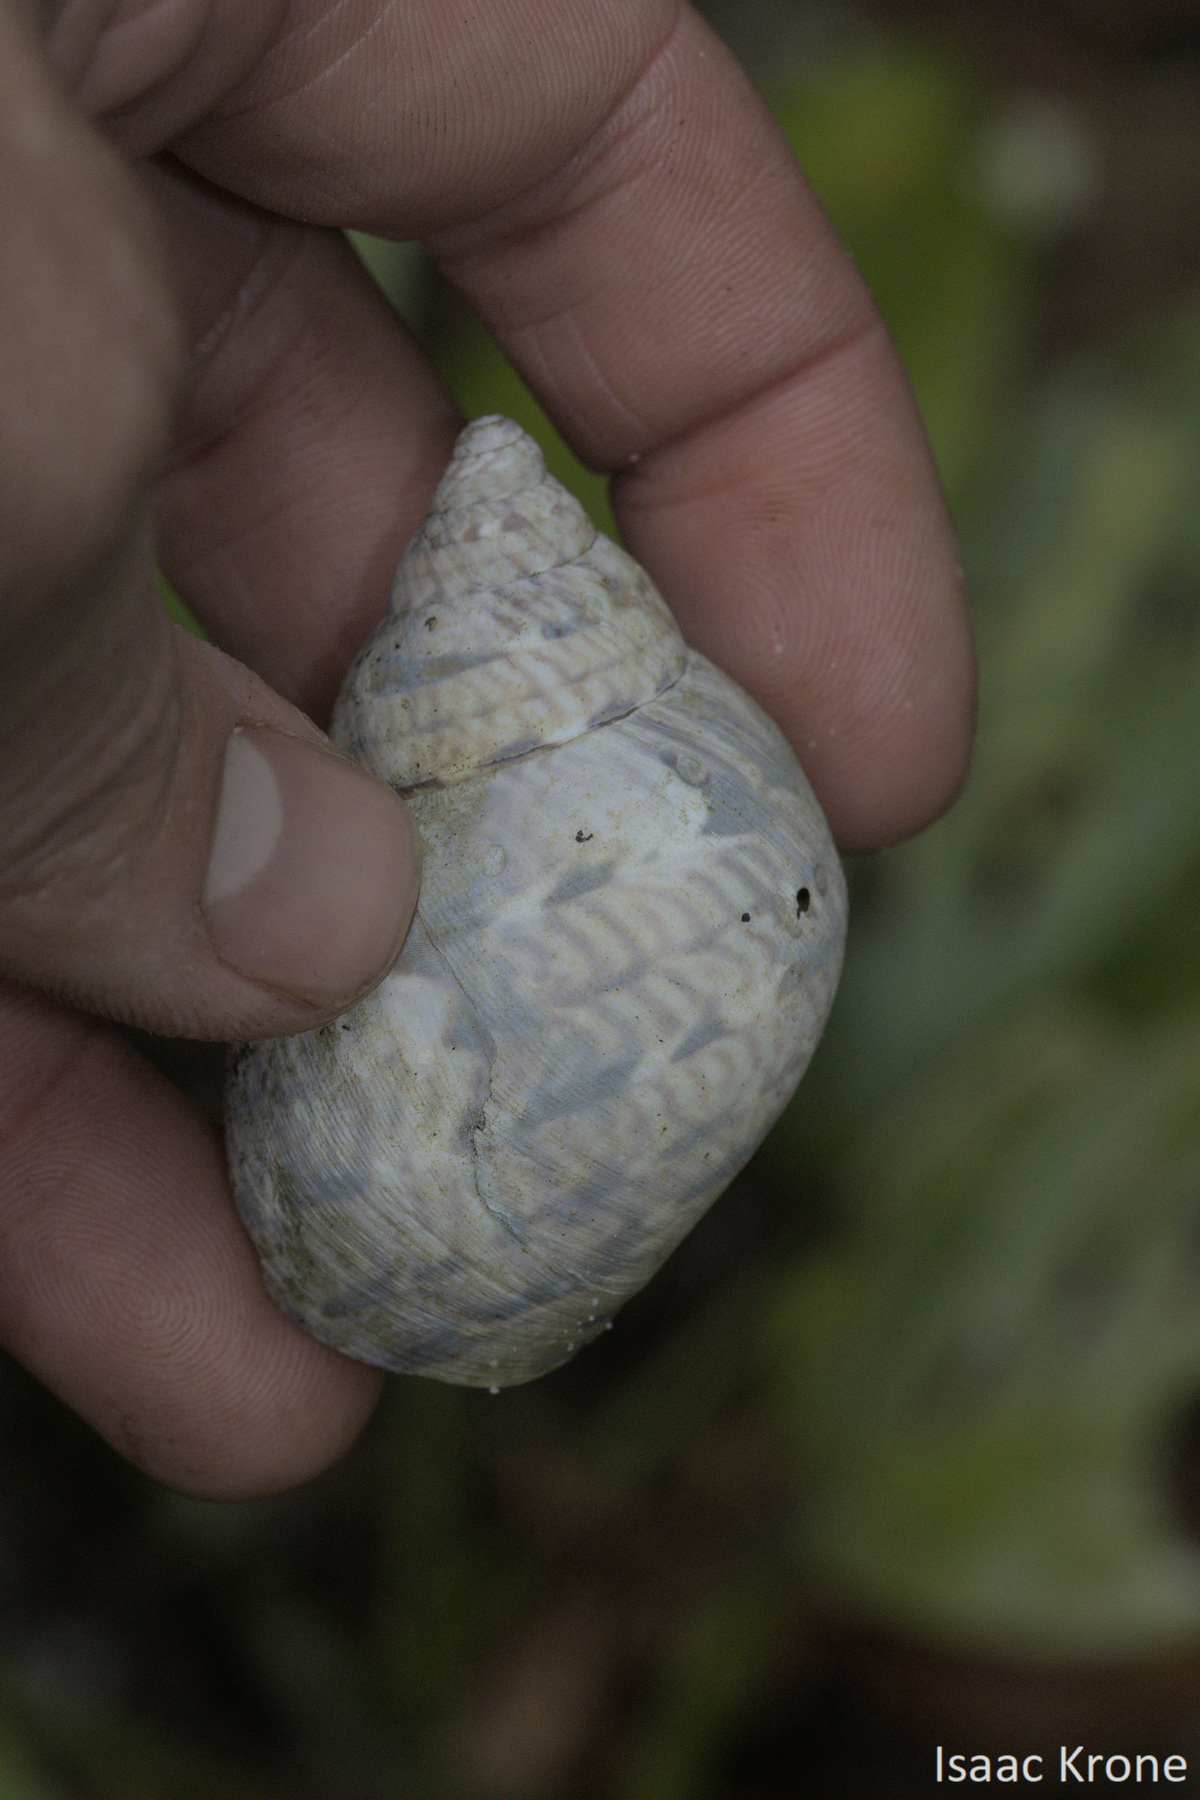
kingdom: Animalia
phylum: Mollusca
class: Gastropoda
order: Stylommatophora
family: Orthalicidae
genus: Sultana
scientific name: Sultana sultana
